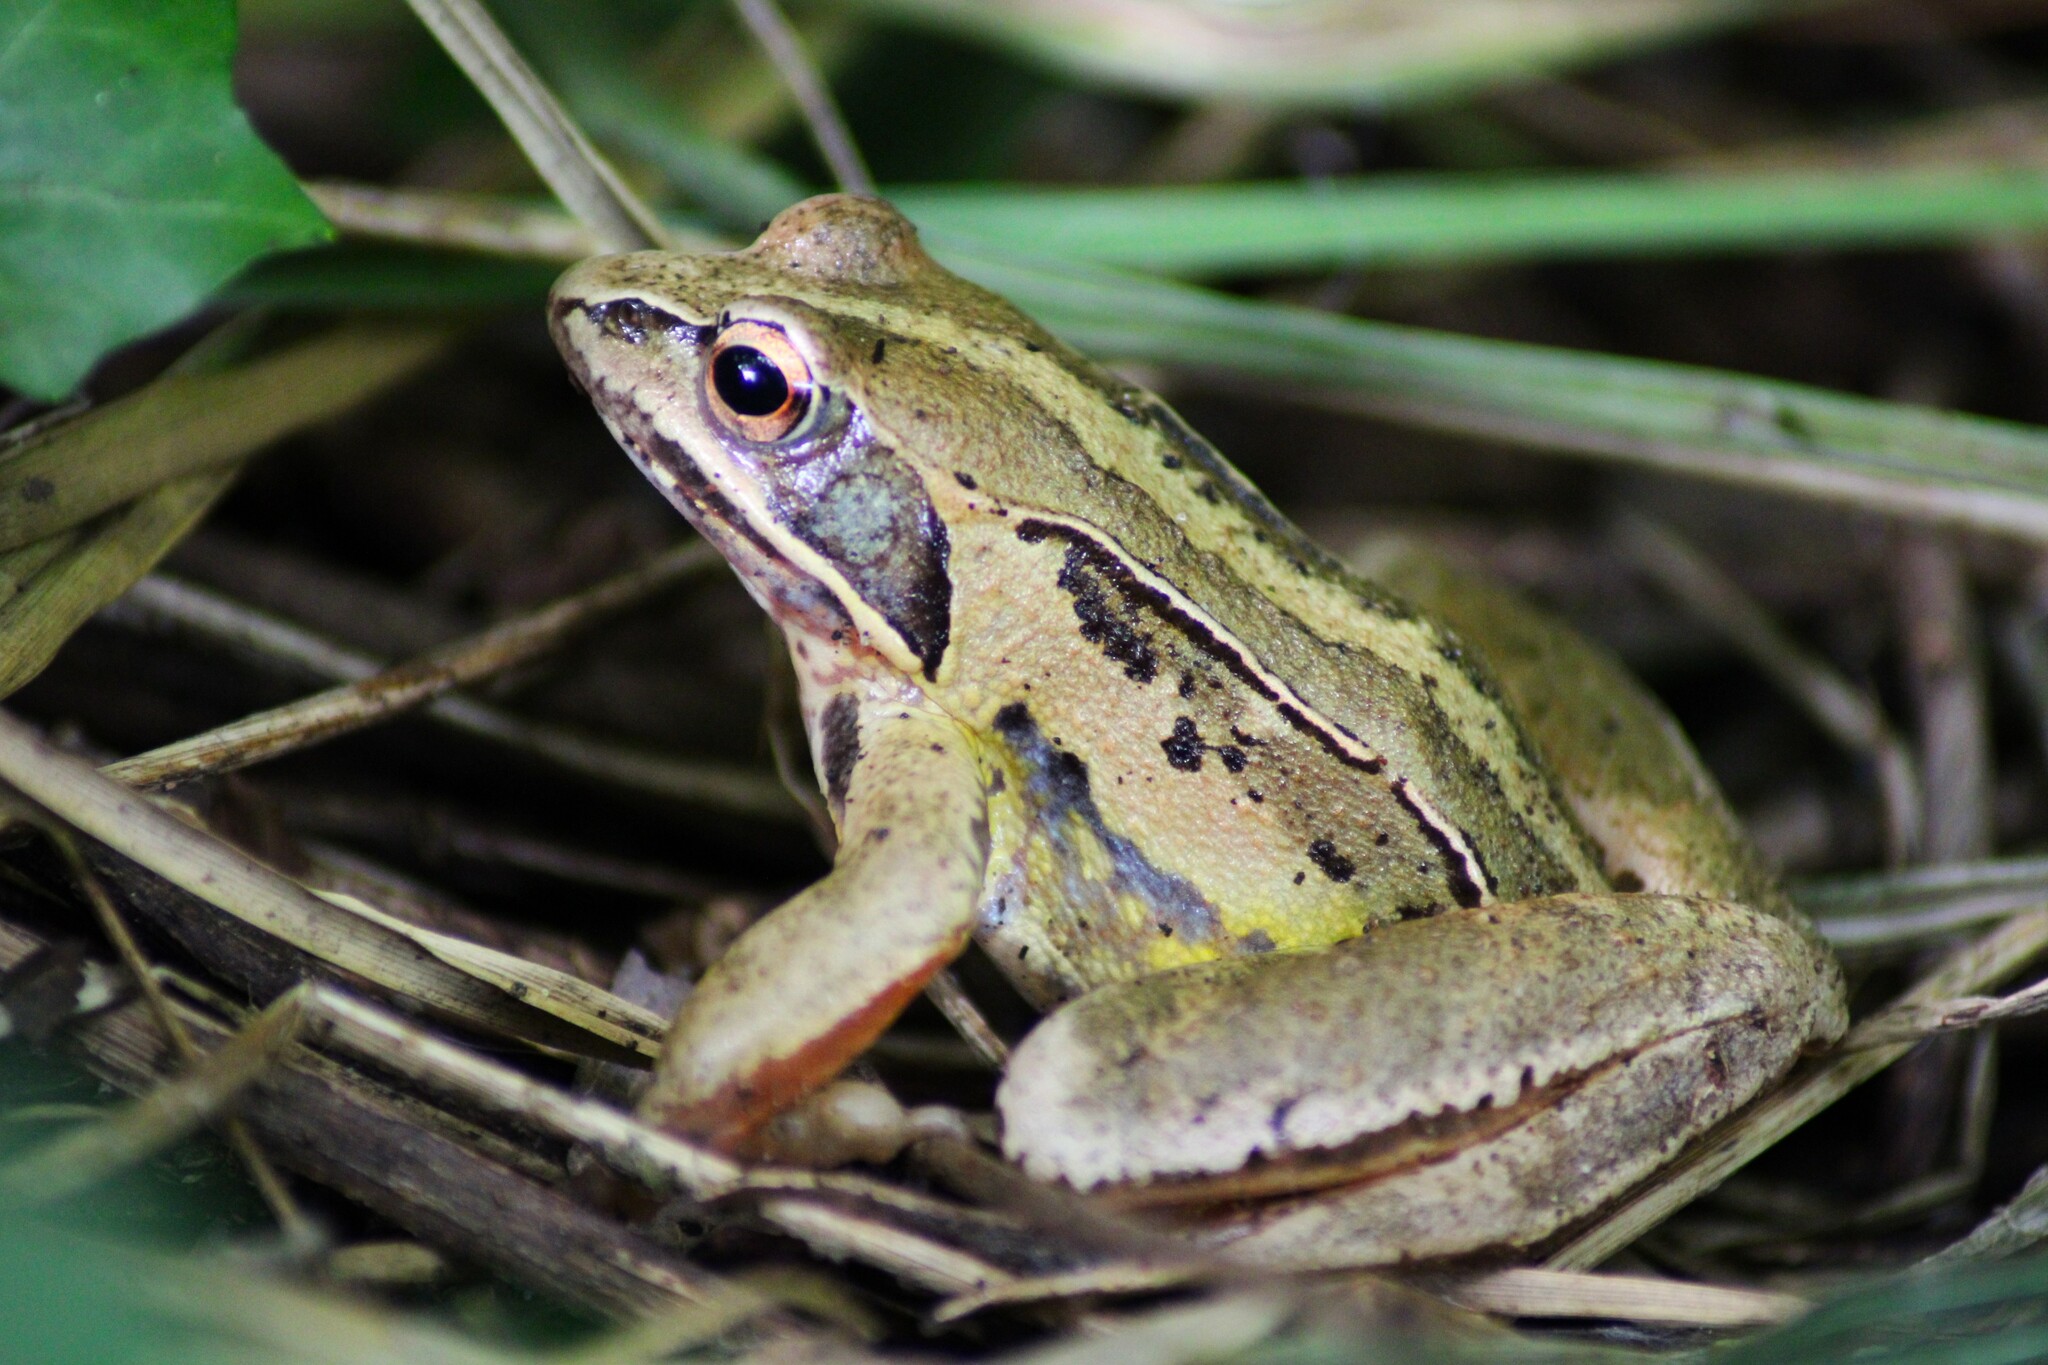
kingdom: Animalia
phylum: Chordata
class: Amphibia
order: Anura
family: Ranidae
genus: Rana
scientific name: Rana arvalis
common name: Moor frog
